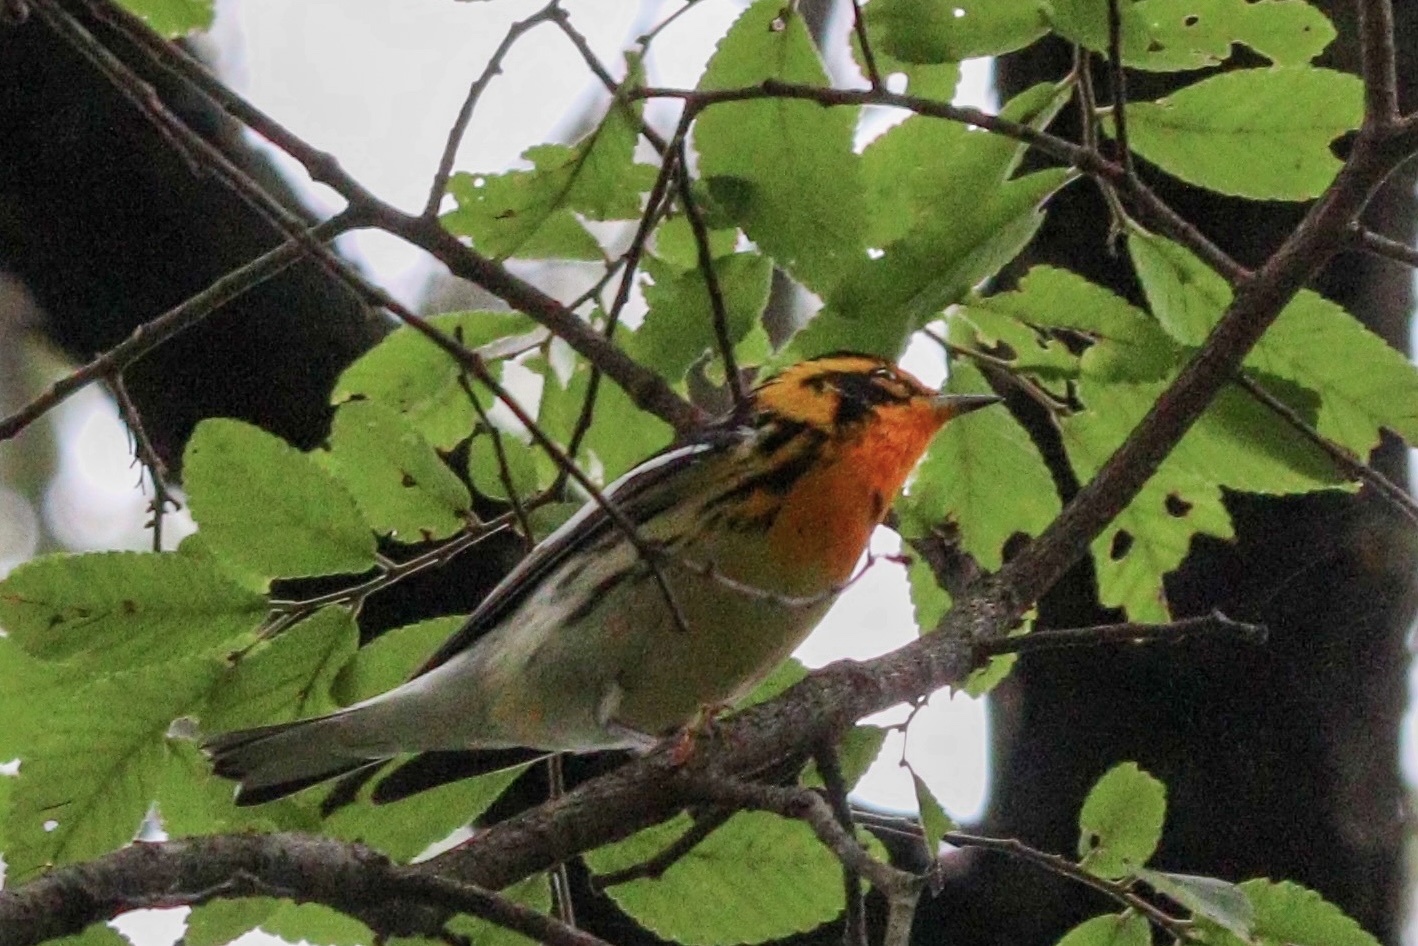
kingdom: Animalia
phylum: Chordata
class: Aves
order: Passeriformes
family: Parulidae
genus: Setophaga
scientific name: Setophaga fusca
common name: Blackburnian warbler
